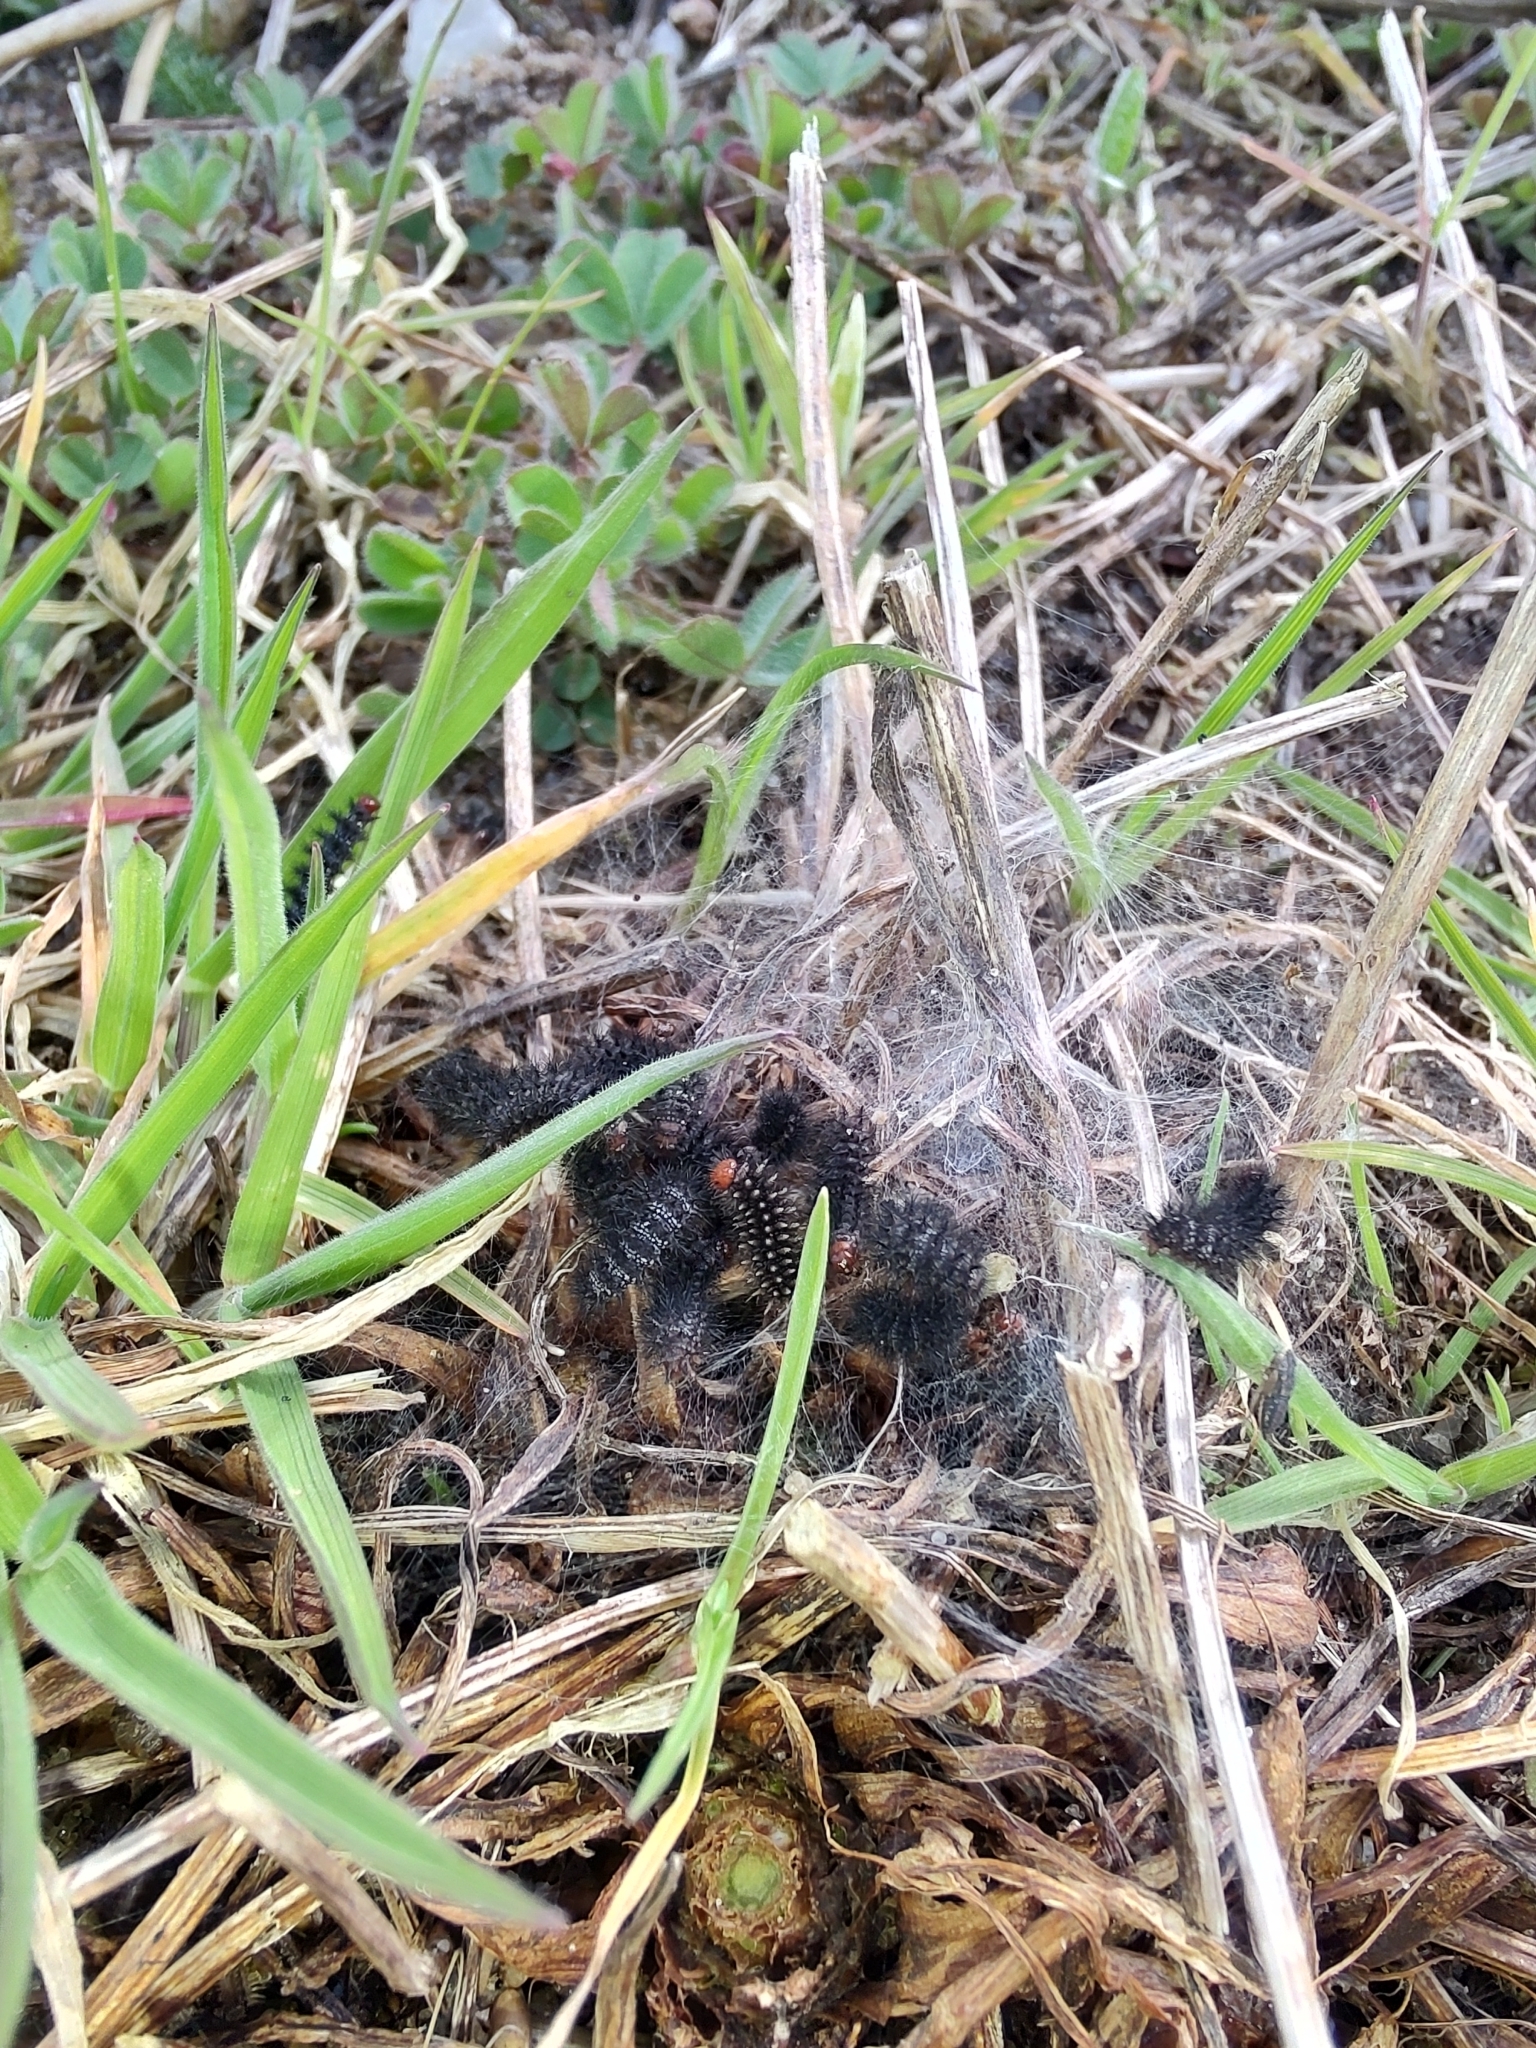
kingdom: Animalia
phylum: Arthropoda
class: Insecta
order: Lepidoptera
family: Nymphalidae
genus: Melitaea
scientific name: Melitaea cinxia
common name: Glanville fritillary
